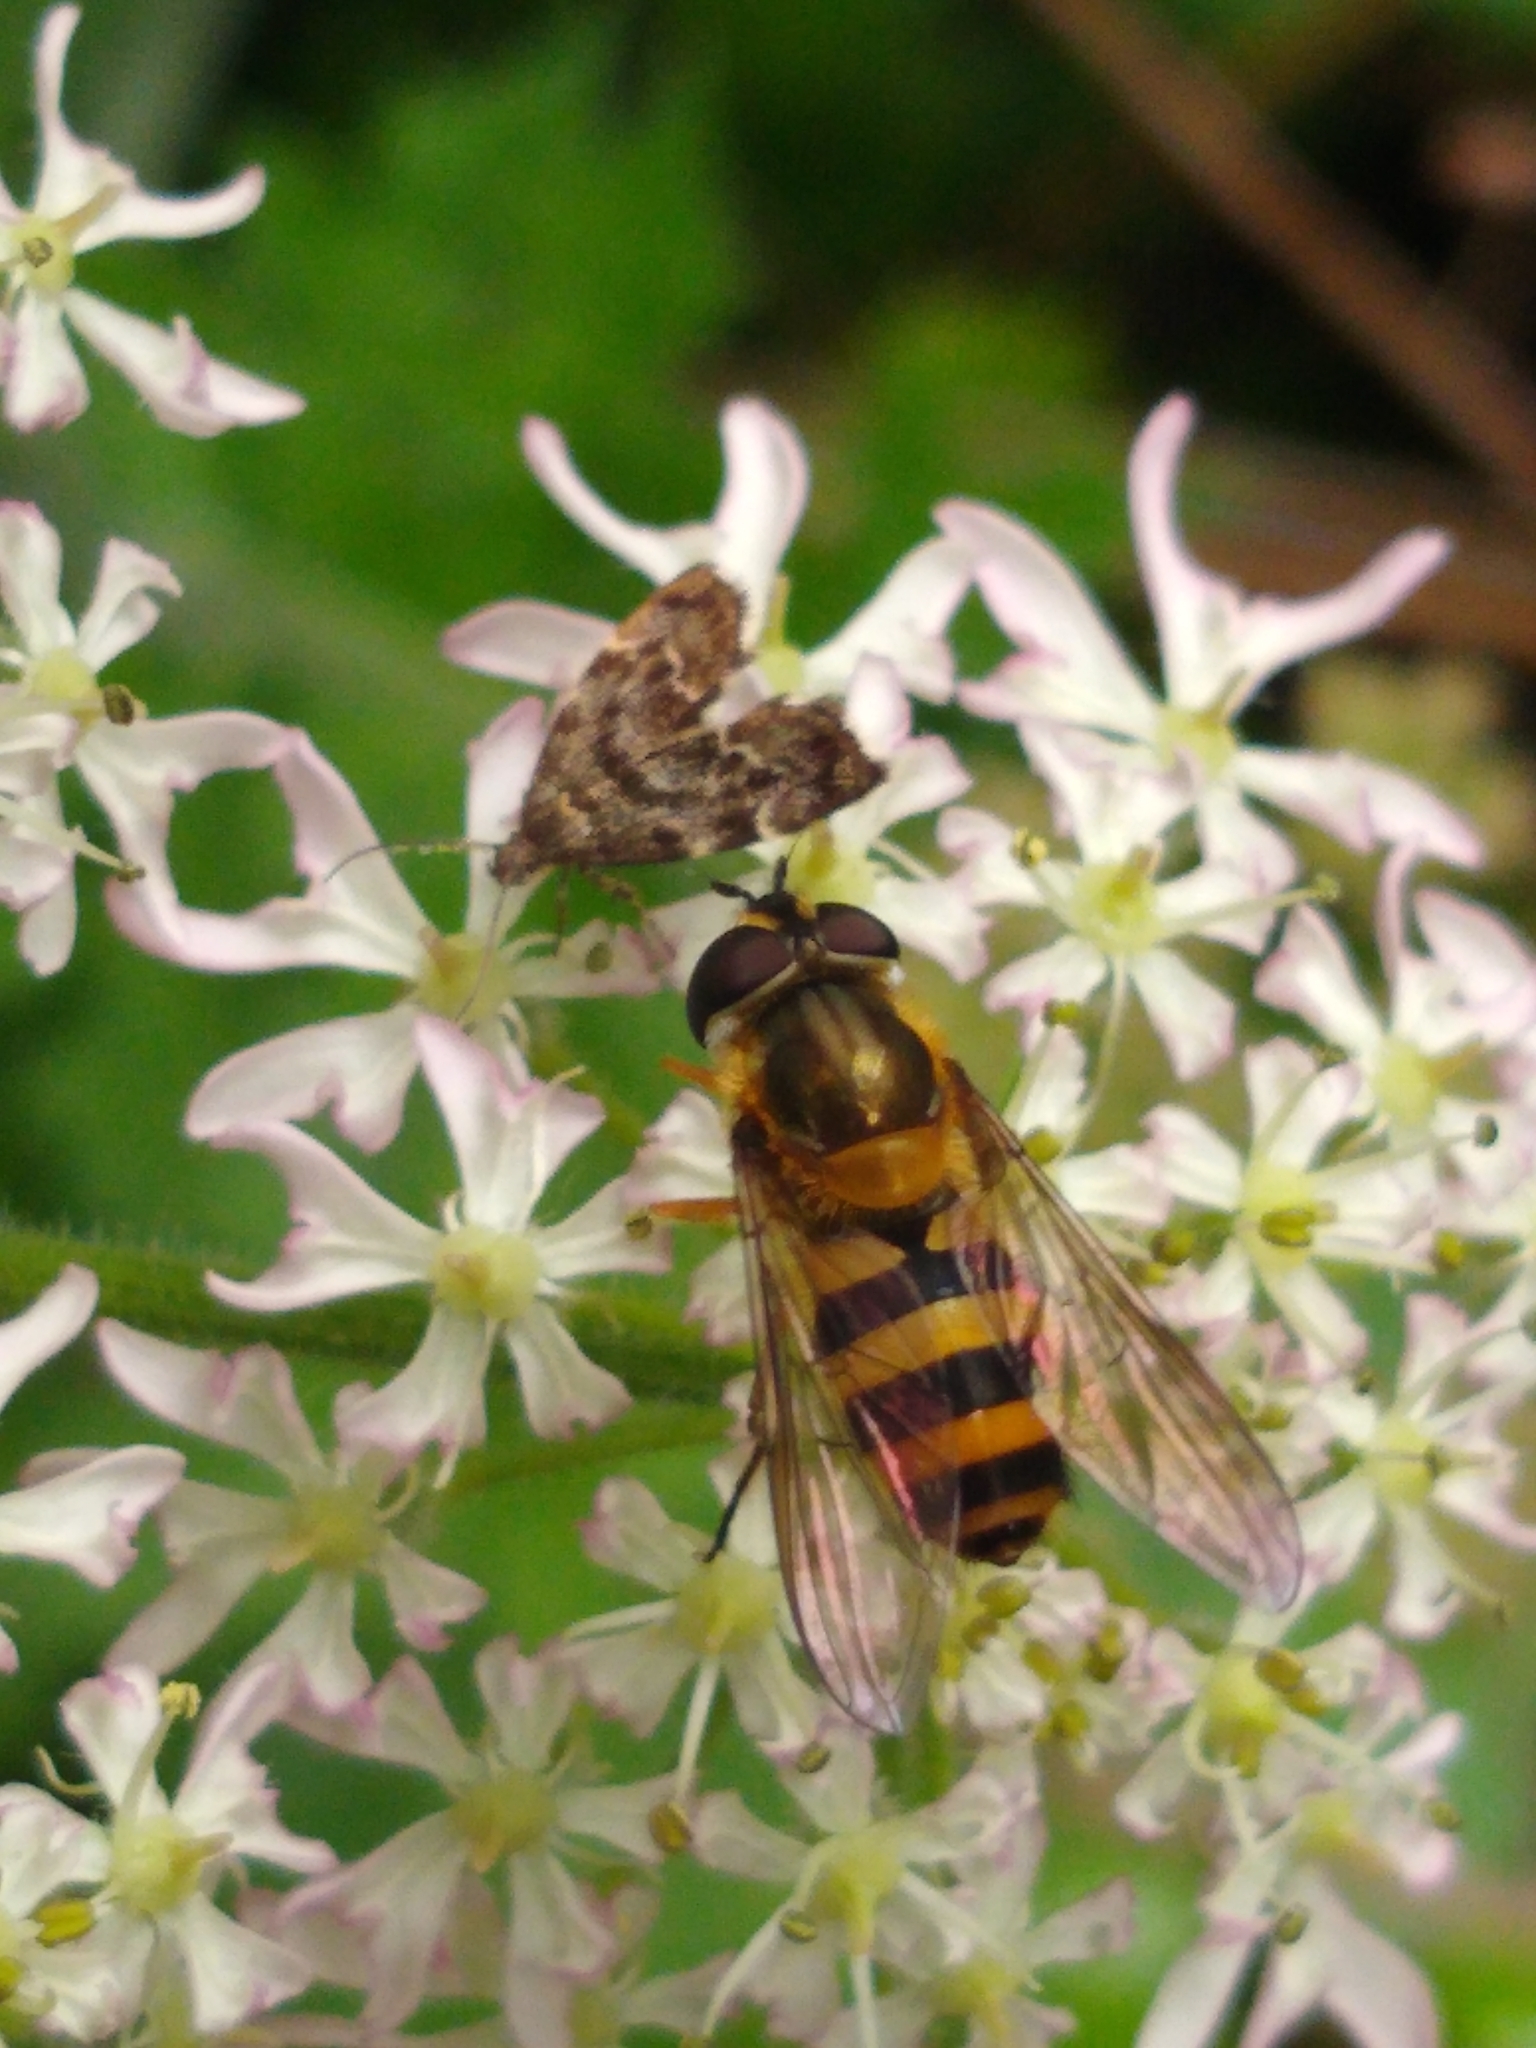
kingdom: Animalia
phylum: Arthropoda
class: Insecta
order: Diptera
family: Syrphidae
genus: Epistrophe
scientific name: Epistrophe grossulariae
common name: Black-horned smoothtail
